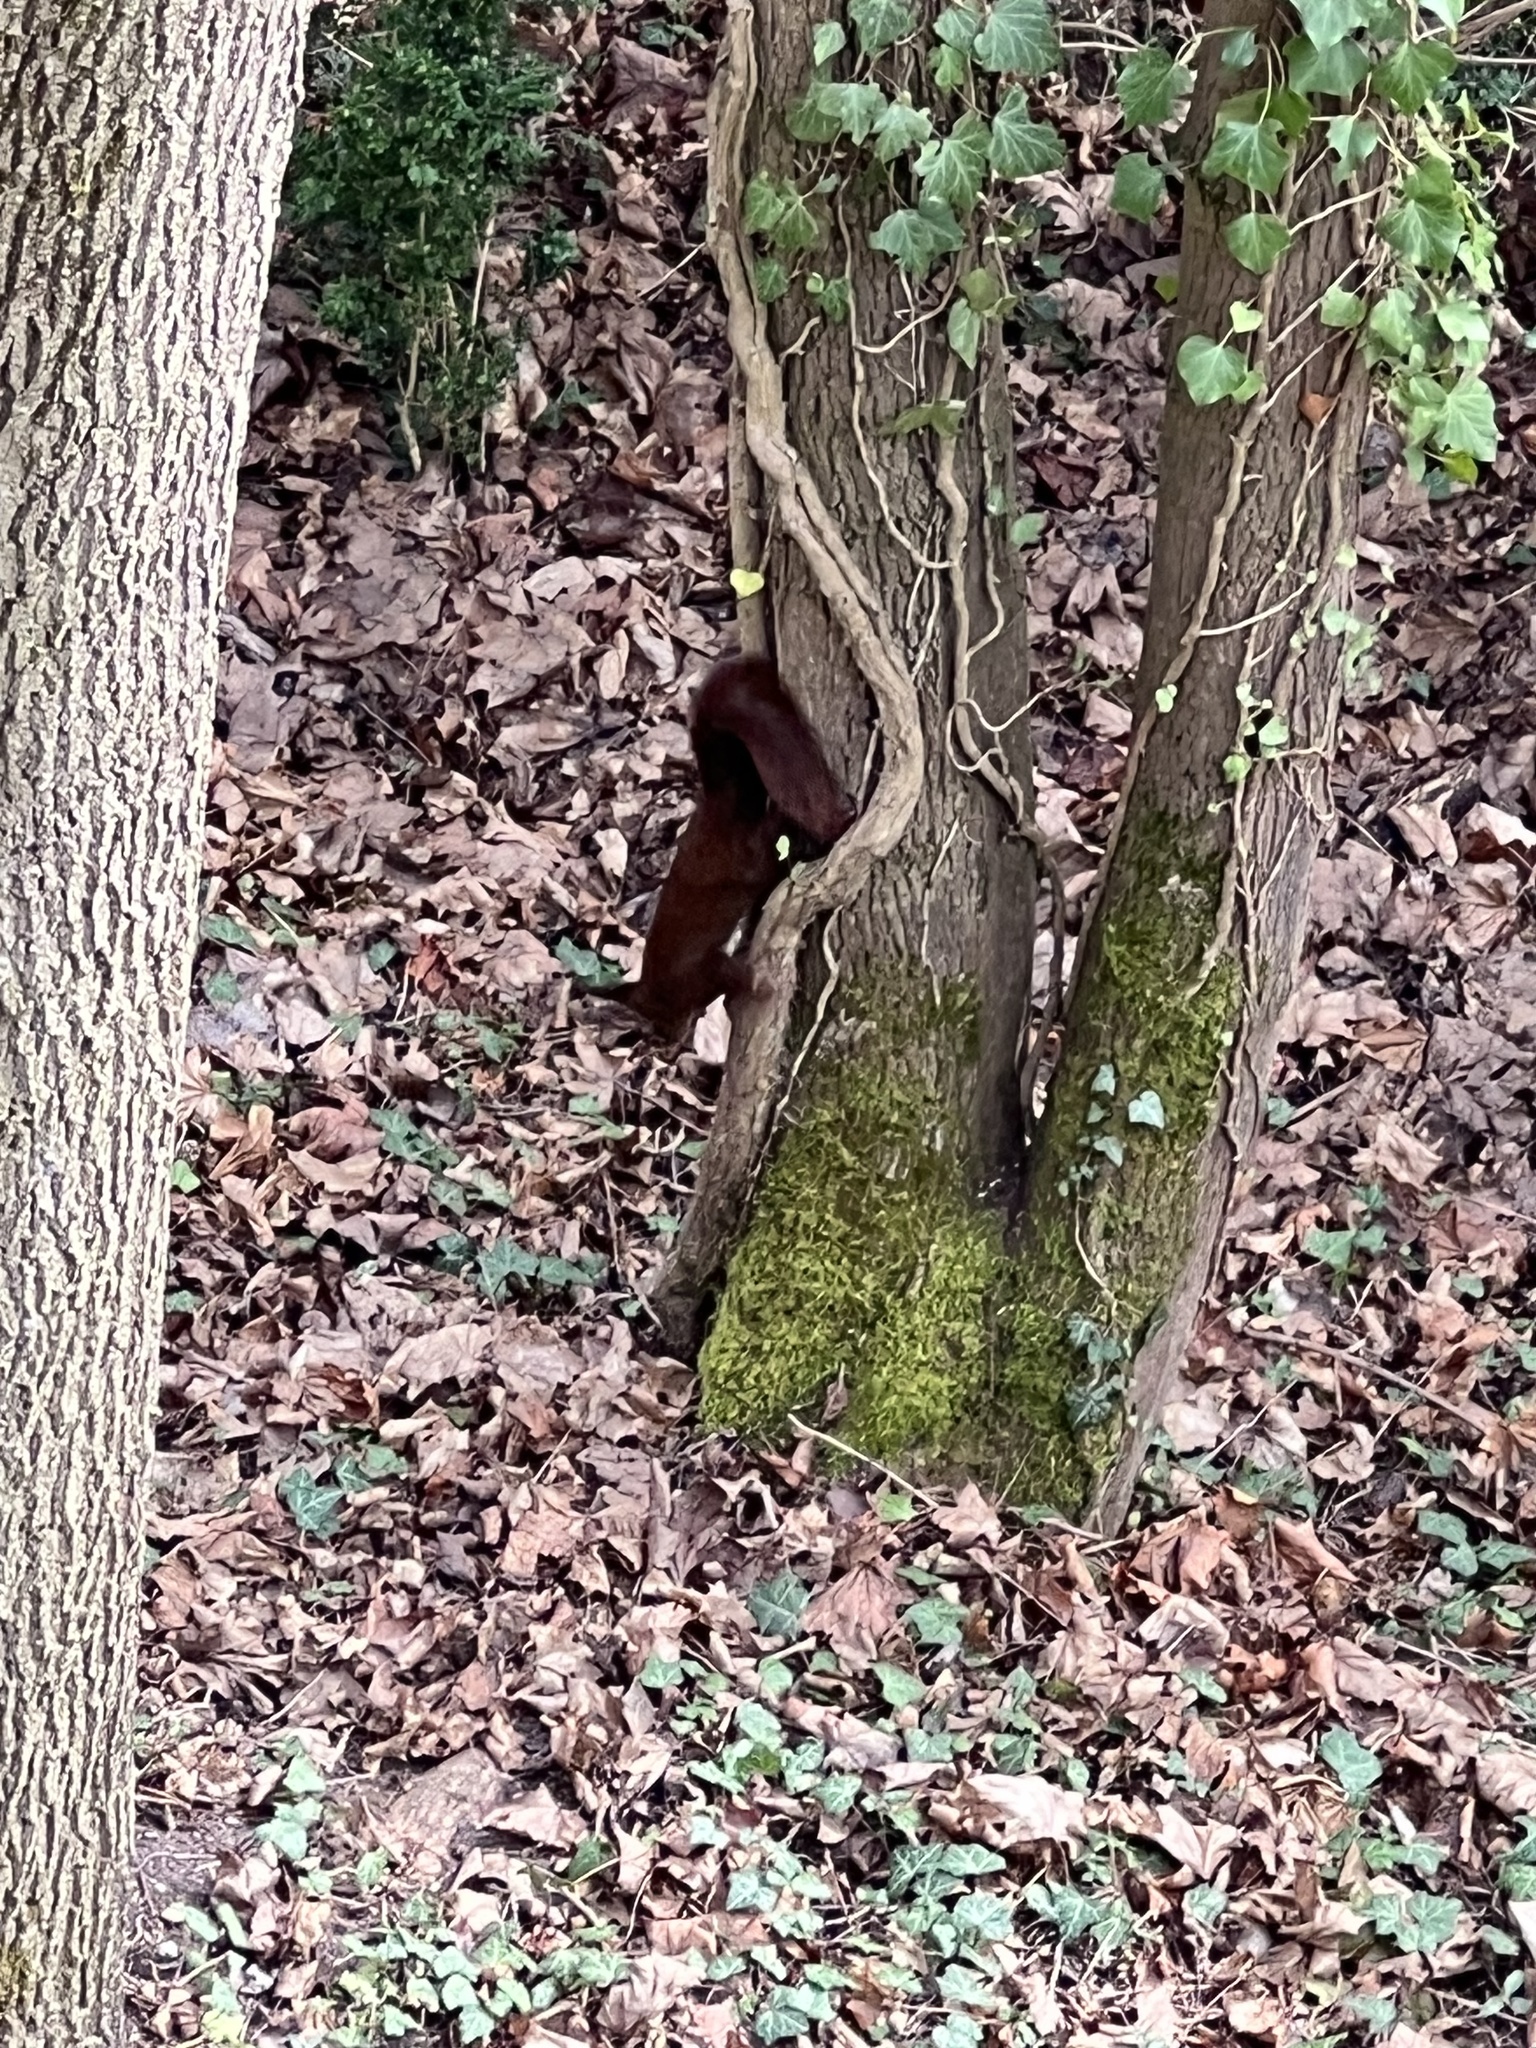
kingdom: Animalia
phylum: Chordata
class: Mammalia
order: Rodentia
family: Sciuridae
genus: Sciurus
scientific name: Sciurus vulgaris
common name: Eurasian red squirrel
